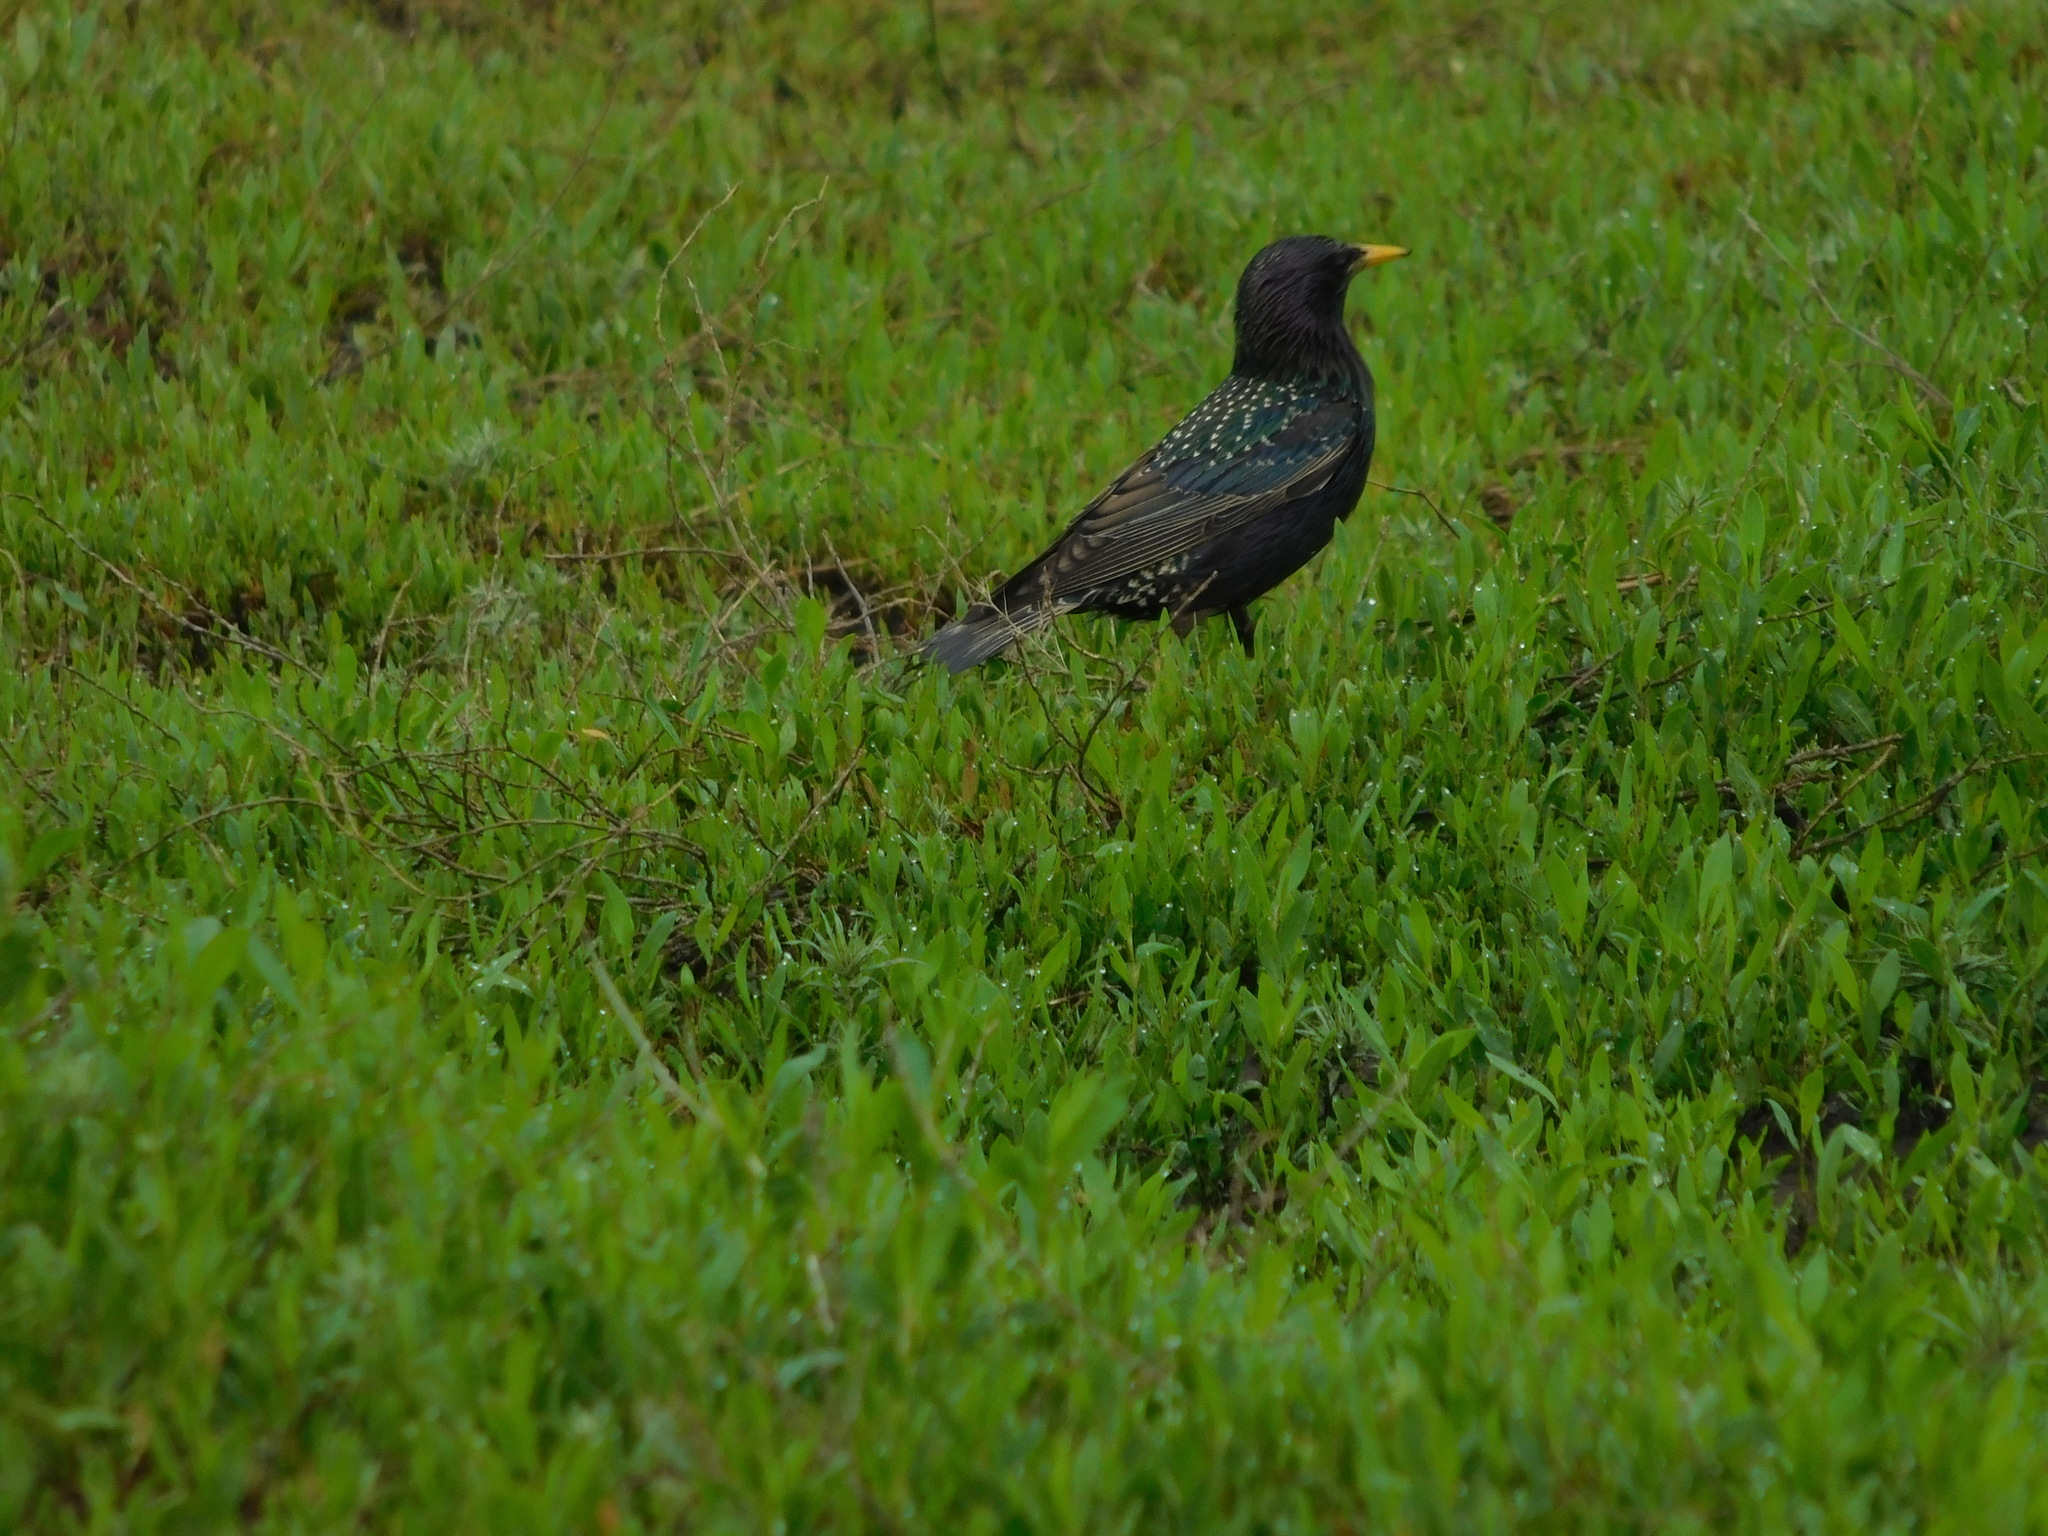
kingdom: Animalia
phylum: Chordata
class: Aves
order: Passeriformes
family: Sturnidae
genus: Sturnus
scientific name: Sturnus vulgaris
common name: Common starling
